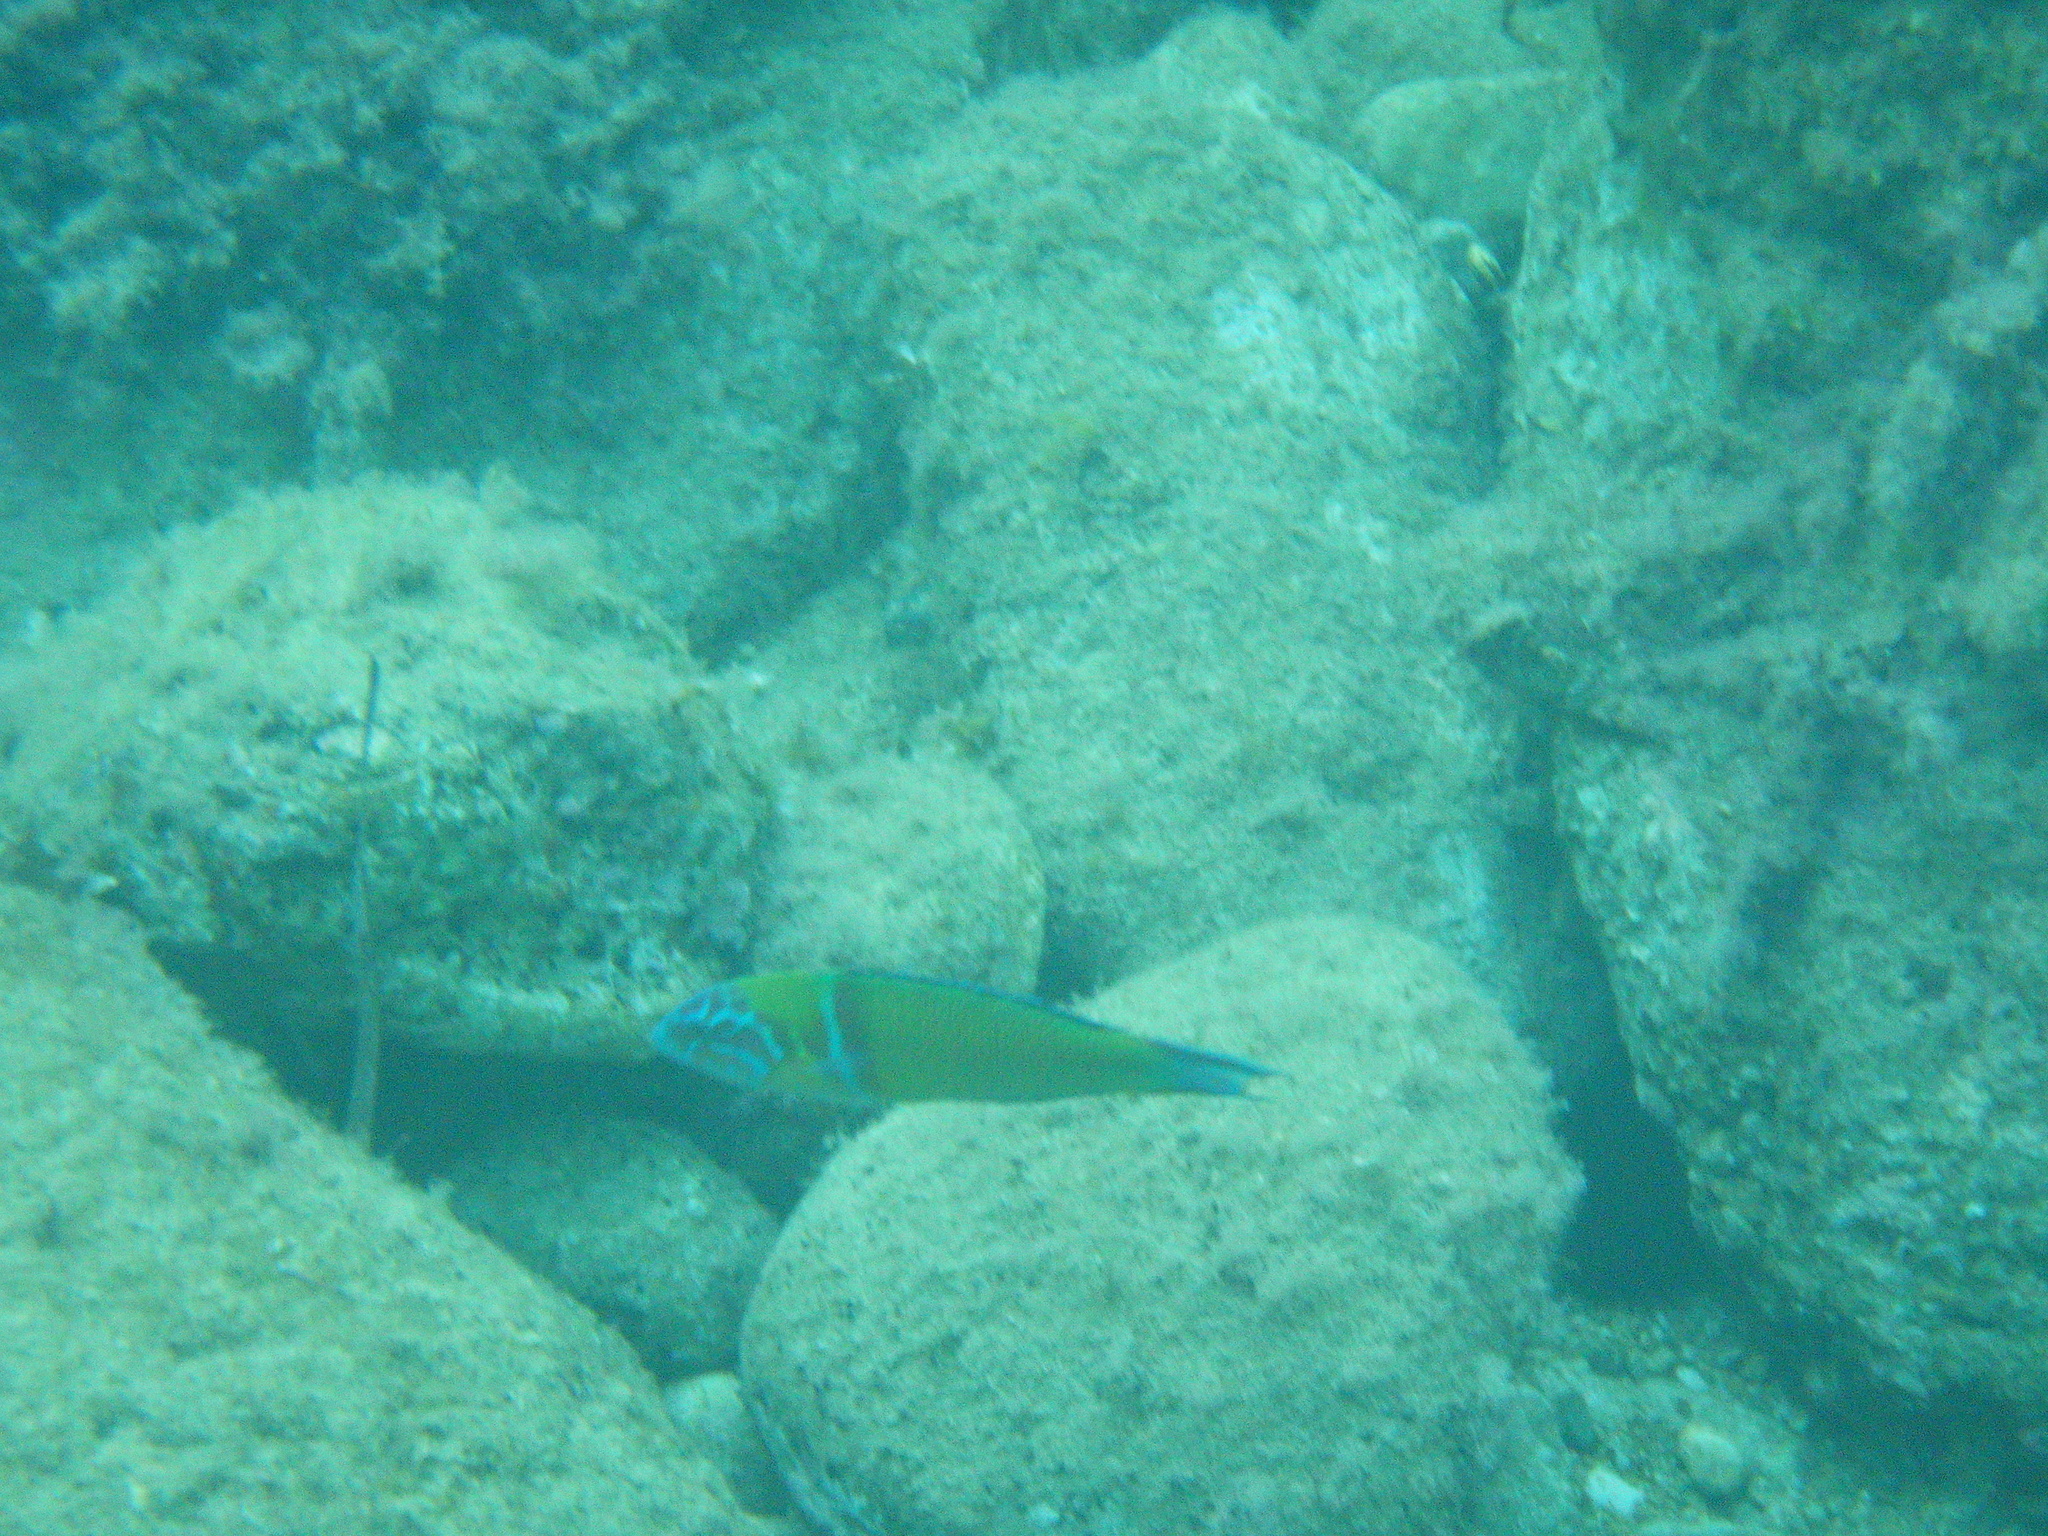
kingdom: Animalia
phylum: Chordata
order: Perciformes
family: Labridae
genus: Thalassoma
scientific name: Thalassoma pavo
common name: Ornate wrasse
